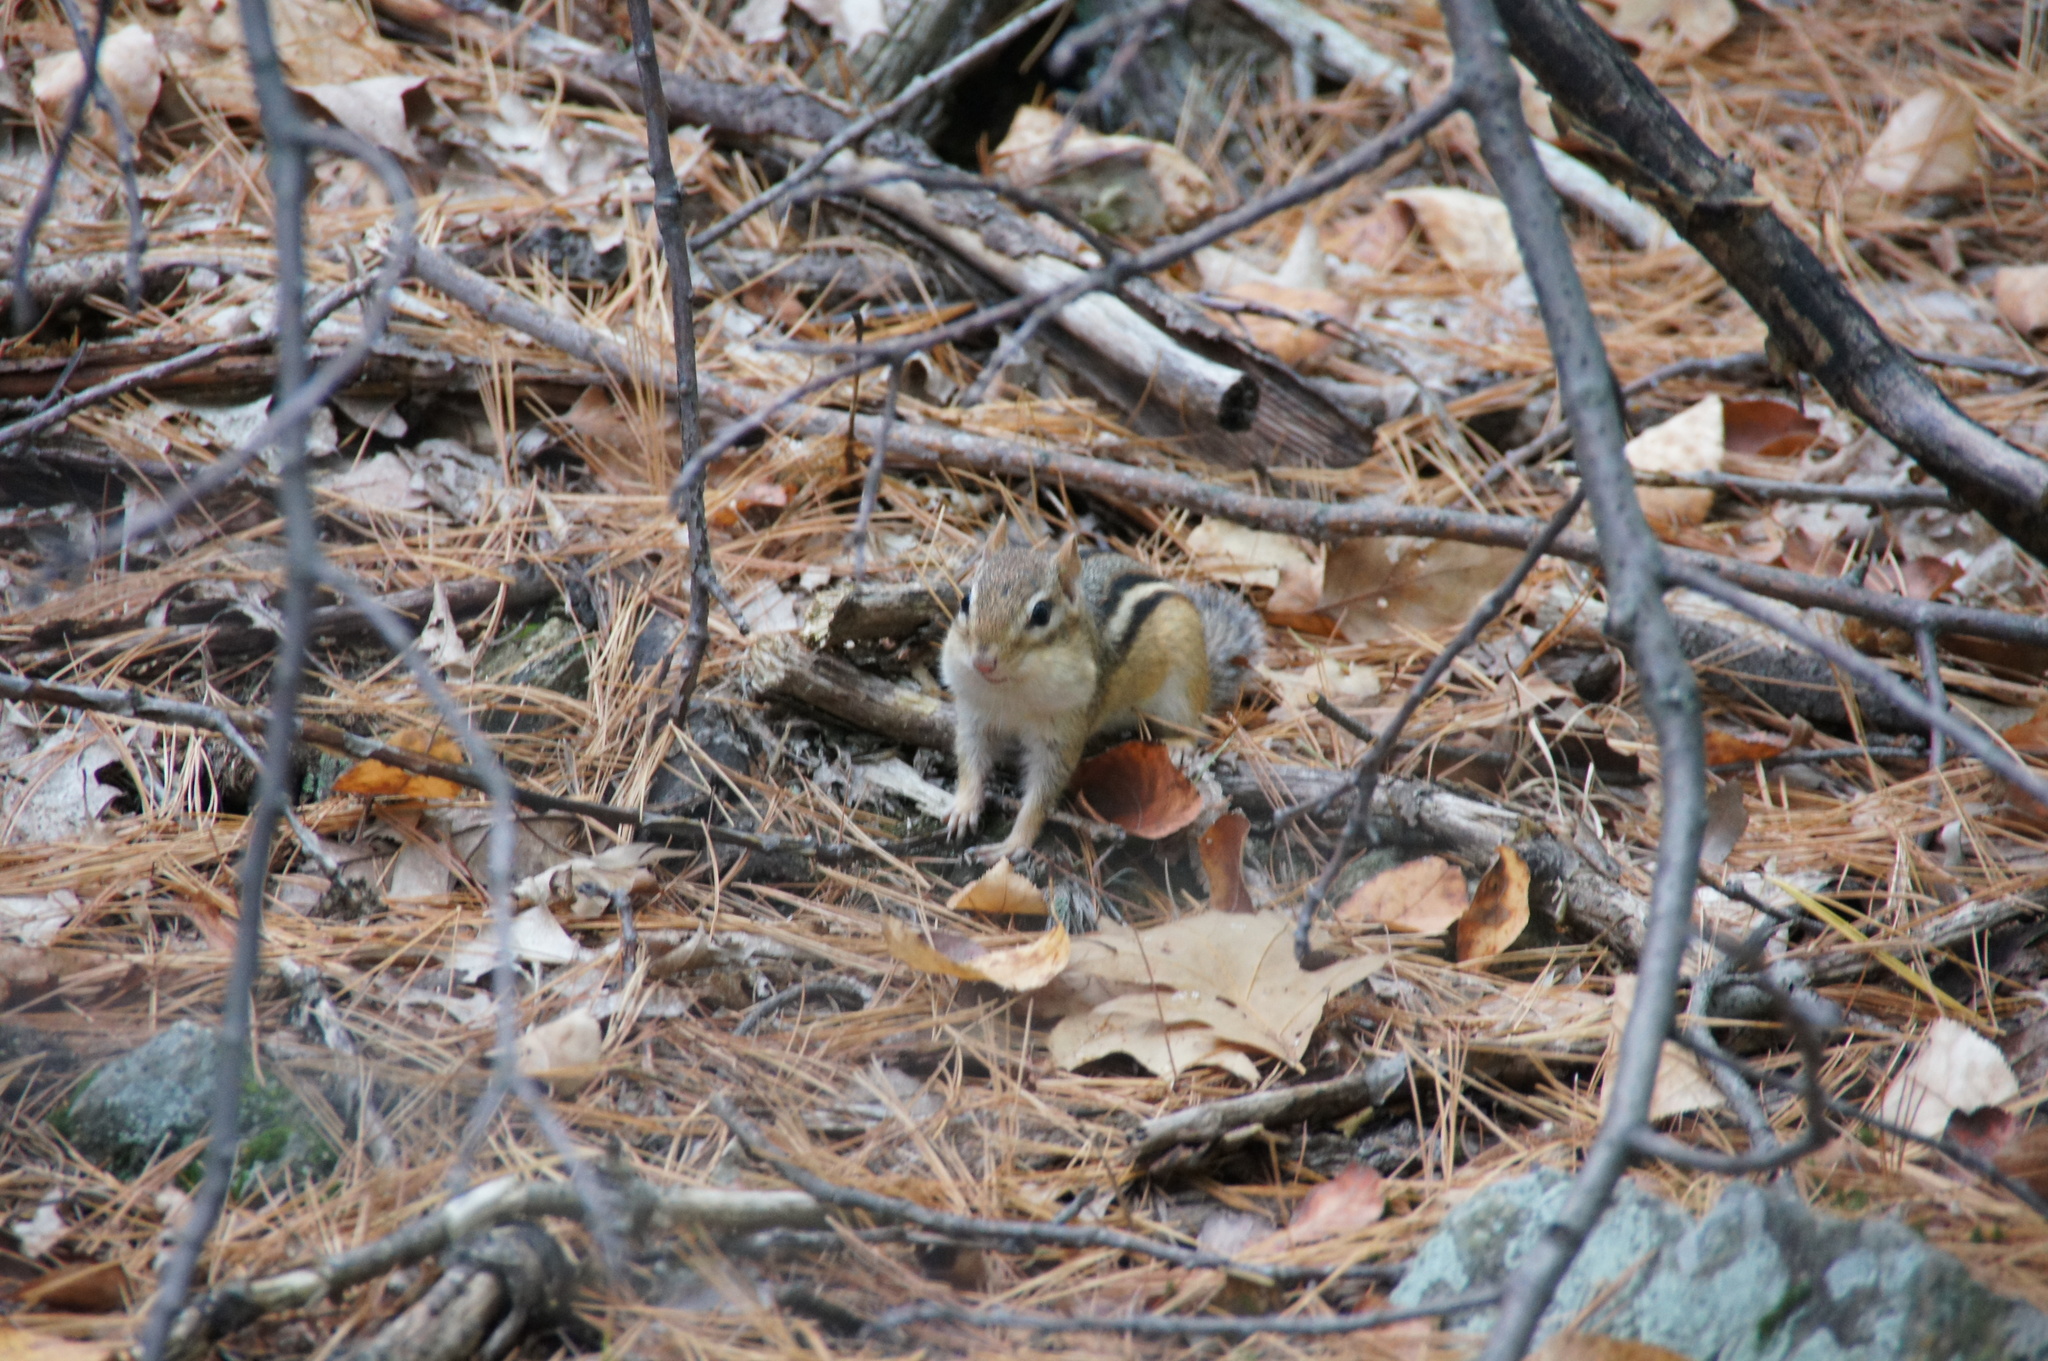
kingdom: Animalia
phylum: Chordata
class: Mammalia
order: Rodentia
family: Sciuridae
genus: Tamias
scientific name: Tamias striatus
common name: Eastern chipmunk
